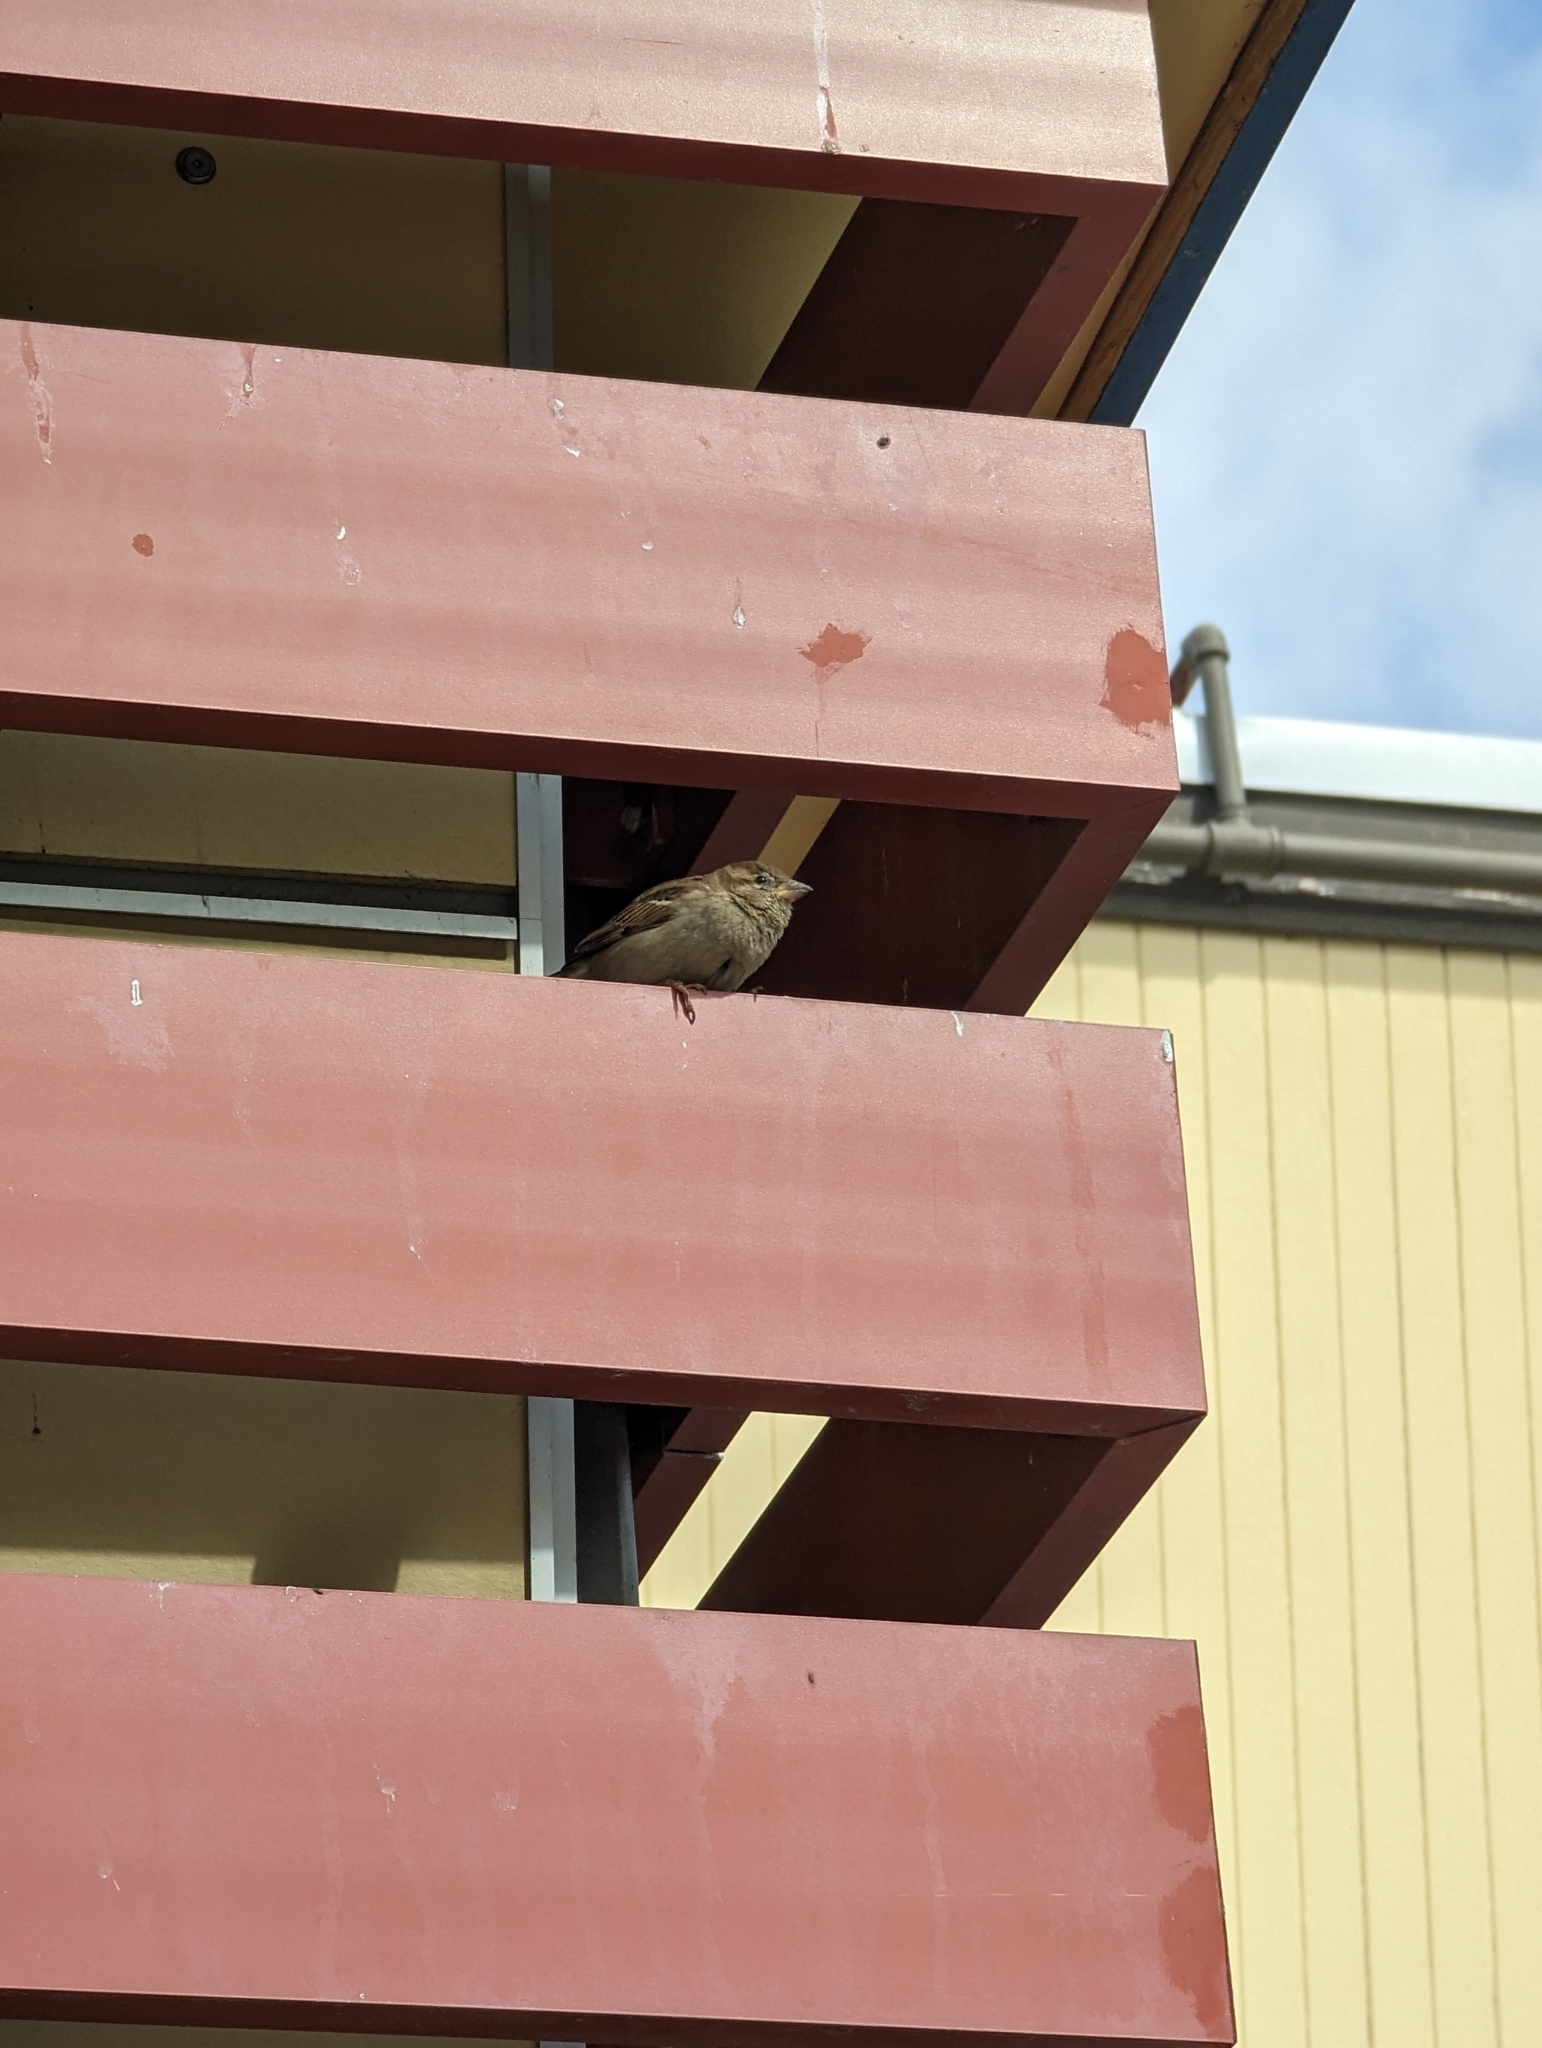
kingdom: Animalia
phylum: Chordata
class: Aves
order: Passeriformes
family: Passeridae
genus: Passer
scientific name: Passer domesticus
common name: House sparrow
